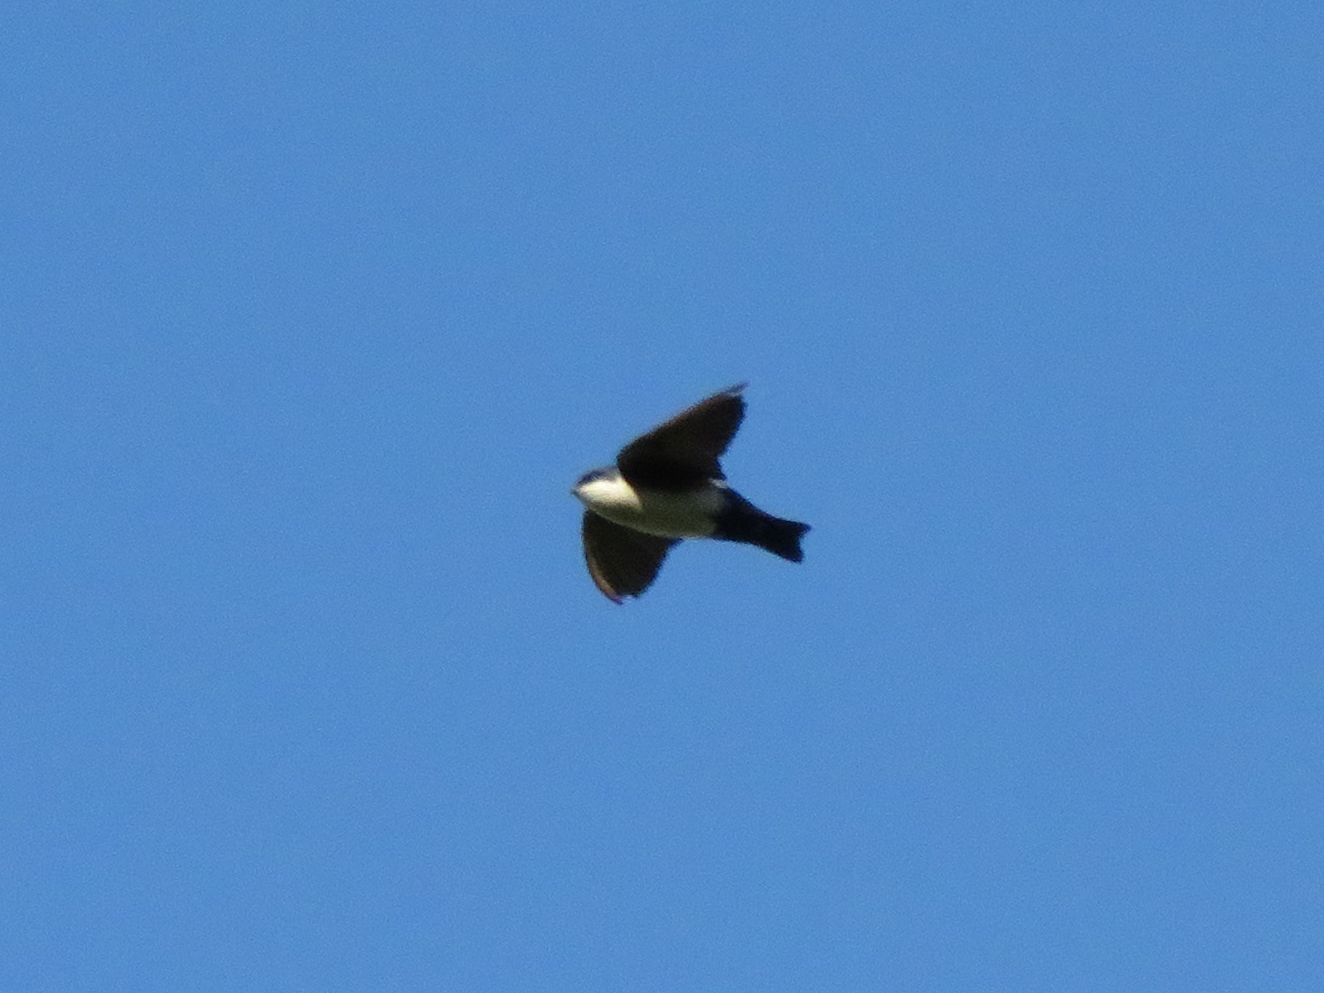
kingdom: Animalia
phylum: Chordata
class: Aves
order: Passeriformes
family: Hirundinidae
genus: Notiochelidon
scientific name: Notiochelidon cyanoleuca
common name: Blue-and-white swallow
